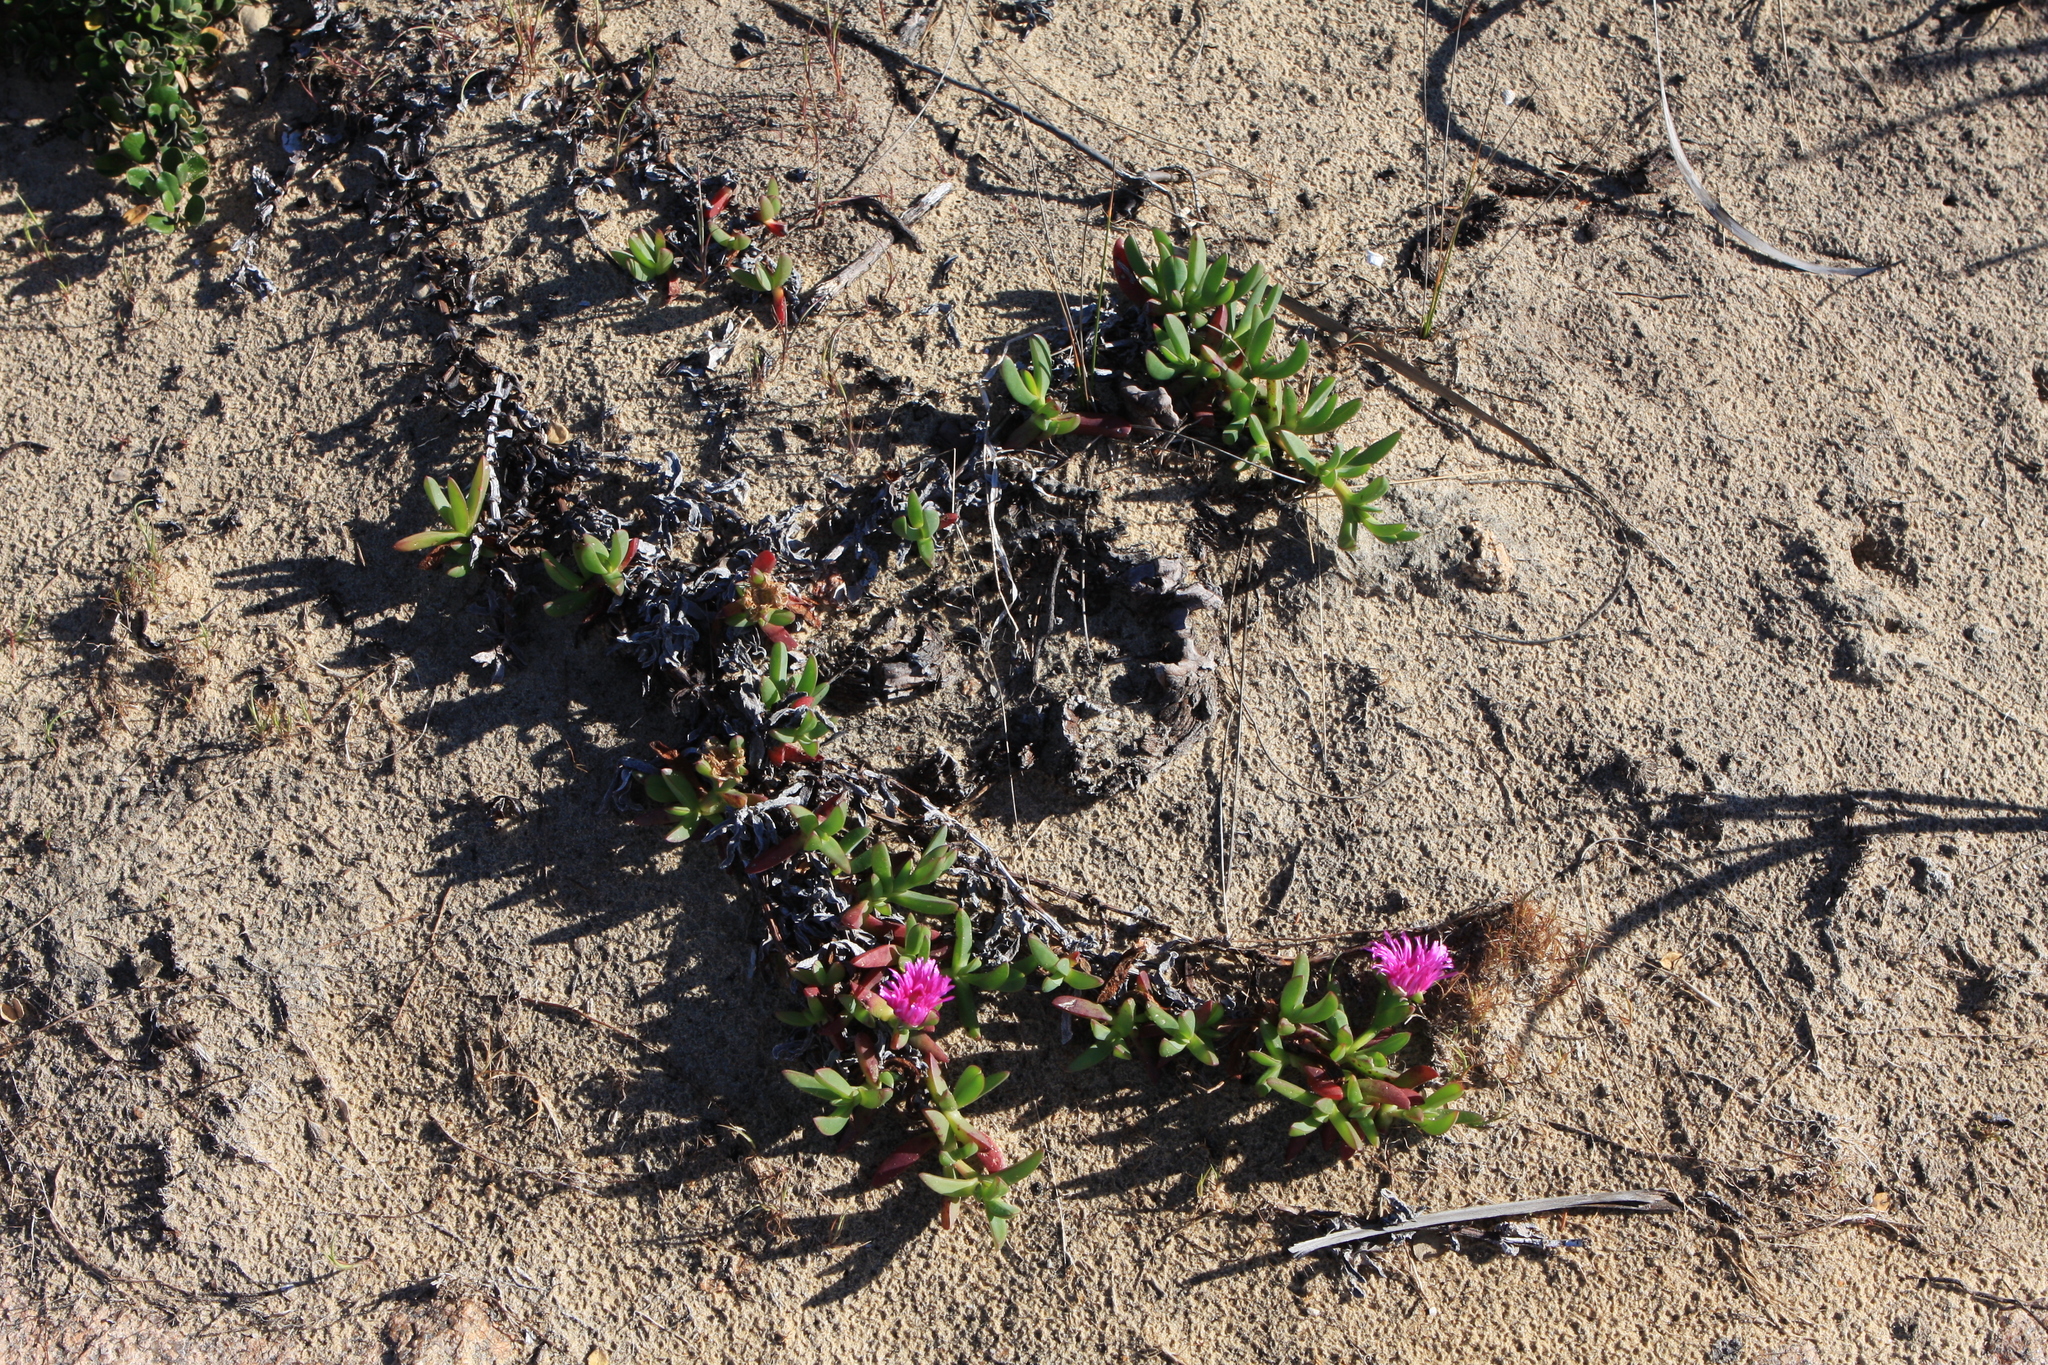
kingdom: Plantae
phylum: Tracheophyta
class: Magnoliopsida
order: Caryophyllales
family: Aizoaceae
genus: Carpobrotus
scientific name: Carpobrotus rossii
